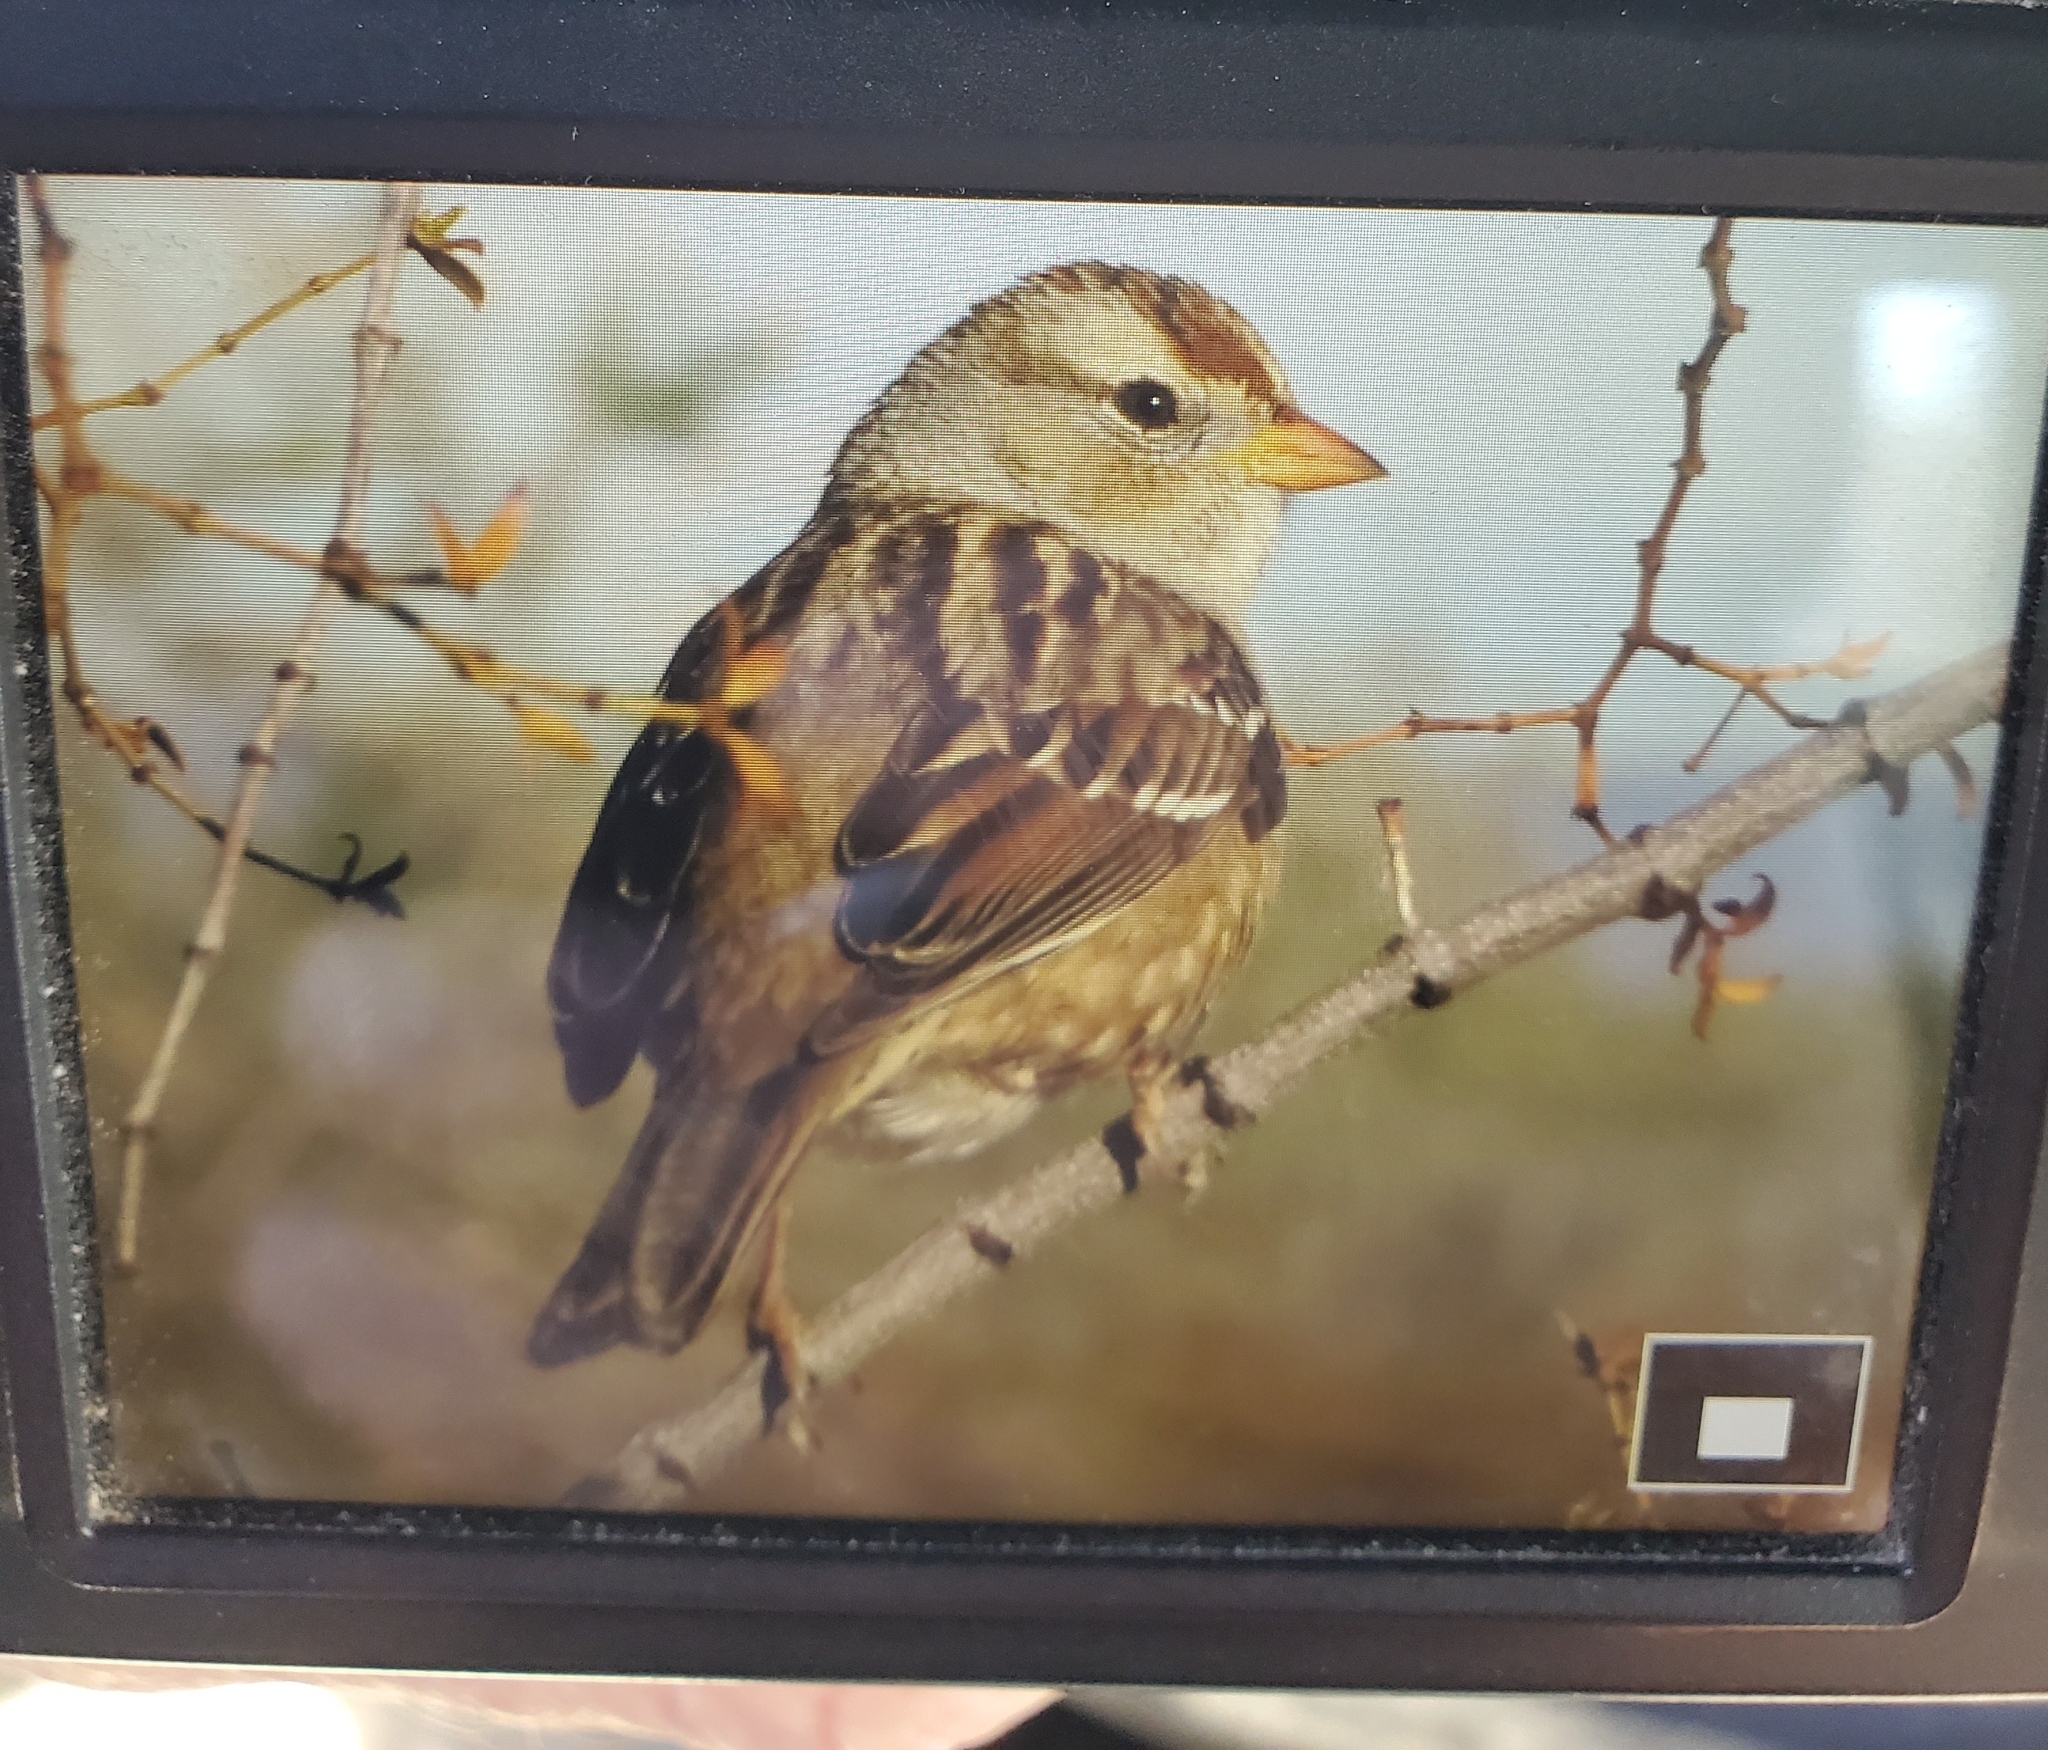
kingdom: Animalia
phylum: Chordata
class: Aves
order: Passeriformes
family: Passerellidae
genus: Zonotrichia
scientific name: Zonotrichia leucophrys
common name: White-crowned sparrow
